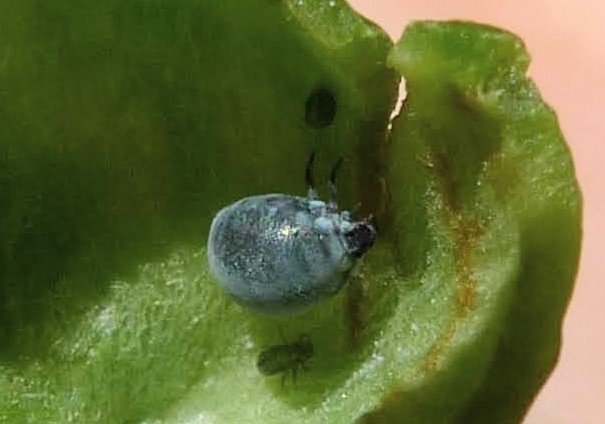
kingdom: Animalia
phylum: Arthropoda
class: Insecta
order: Hemiptera
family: Aphididae
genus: Tetraneura
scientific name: Tetraneura ulmi
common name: Aphid
